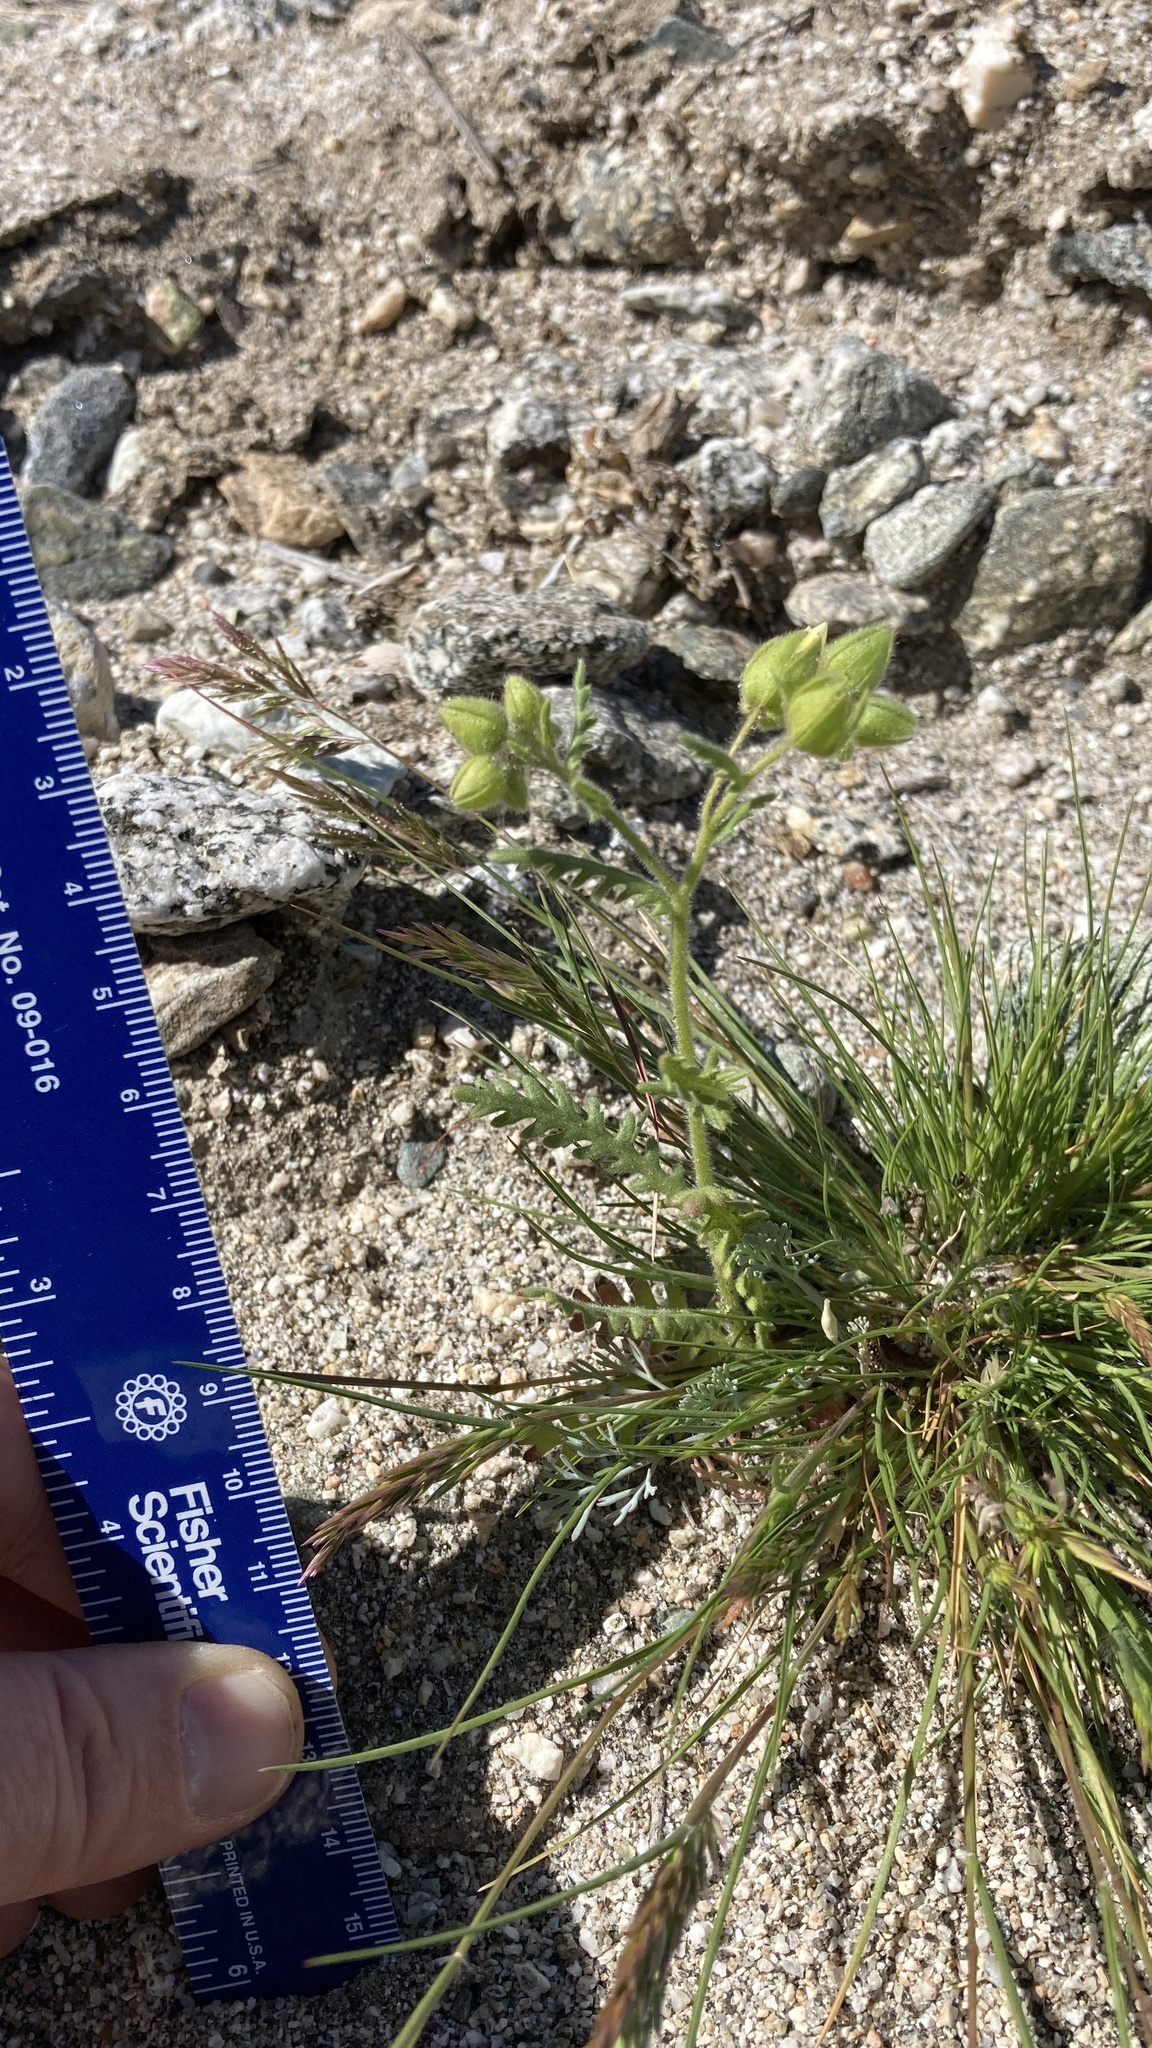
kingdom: Plantae
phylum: Tracheophyta
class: Magnoliopsida
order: Boraginales
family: Hydrophyllaceae
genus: Emmenanthe
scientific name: Emmenanthe penduliflora
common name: Whispering-bells
